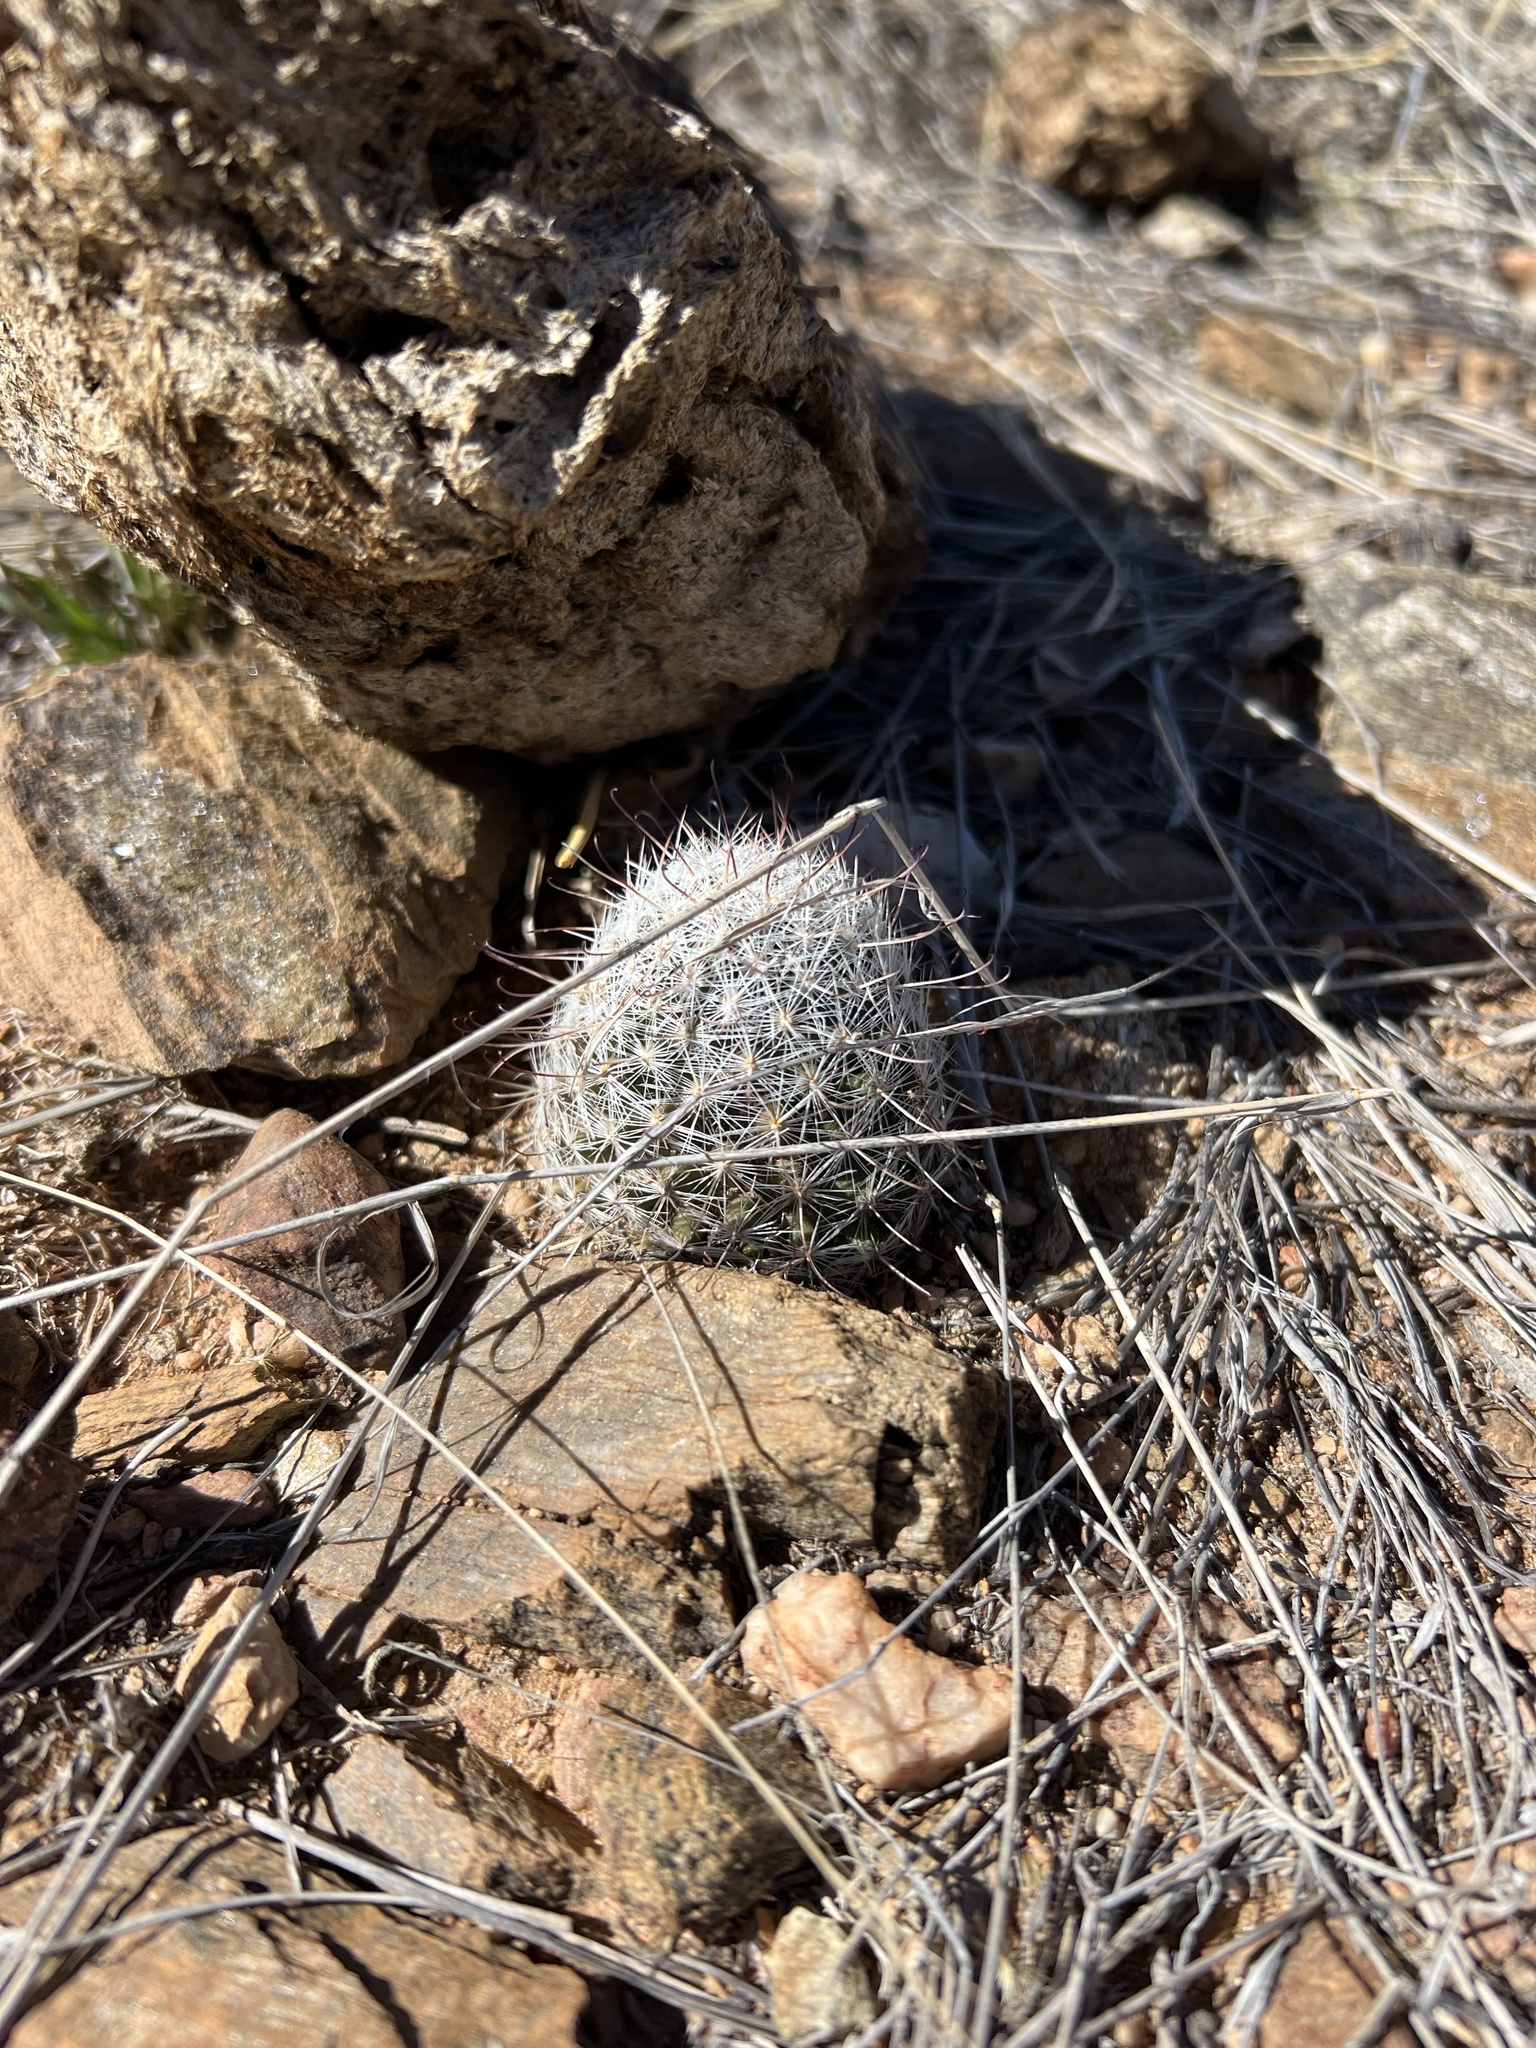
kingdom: Plantae
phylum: Tracheophyta
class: Magnoliopsida
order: Caryophyllales
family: Cactaceae
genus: Cochemiea
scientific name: Cochemiea grahamii
